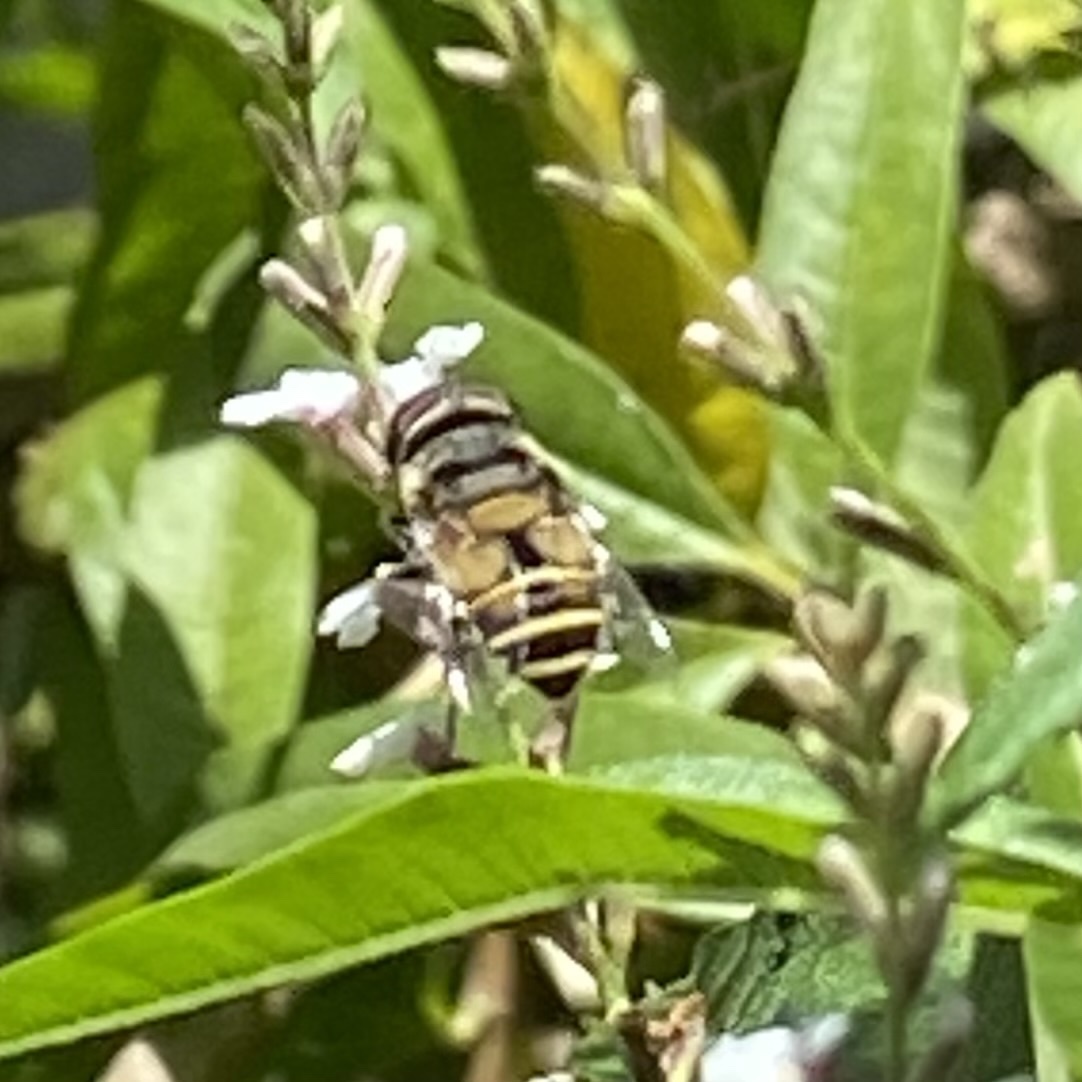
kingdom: Animalia
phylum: Arthropoda
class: Insecta
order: Diptera
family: Syrphidae
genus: Palpada
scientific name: Palpada alhambra
